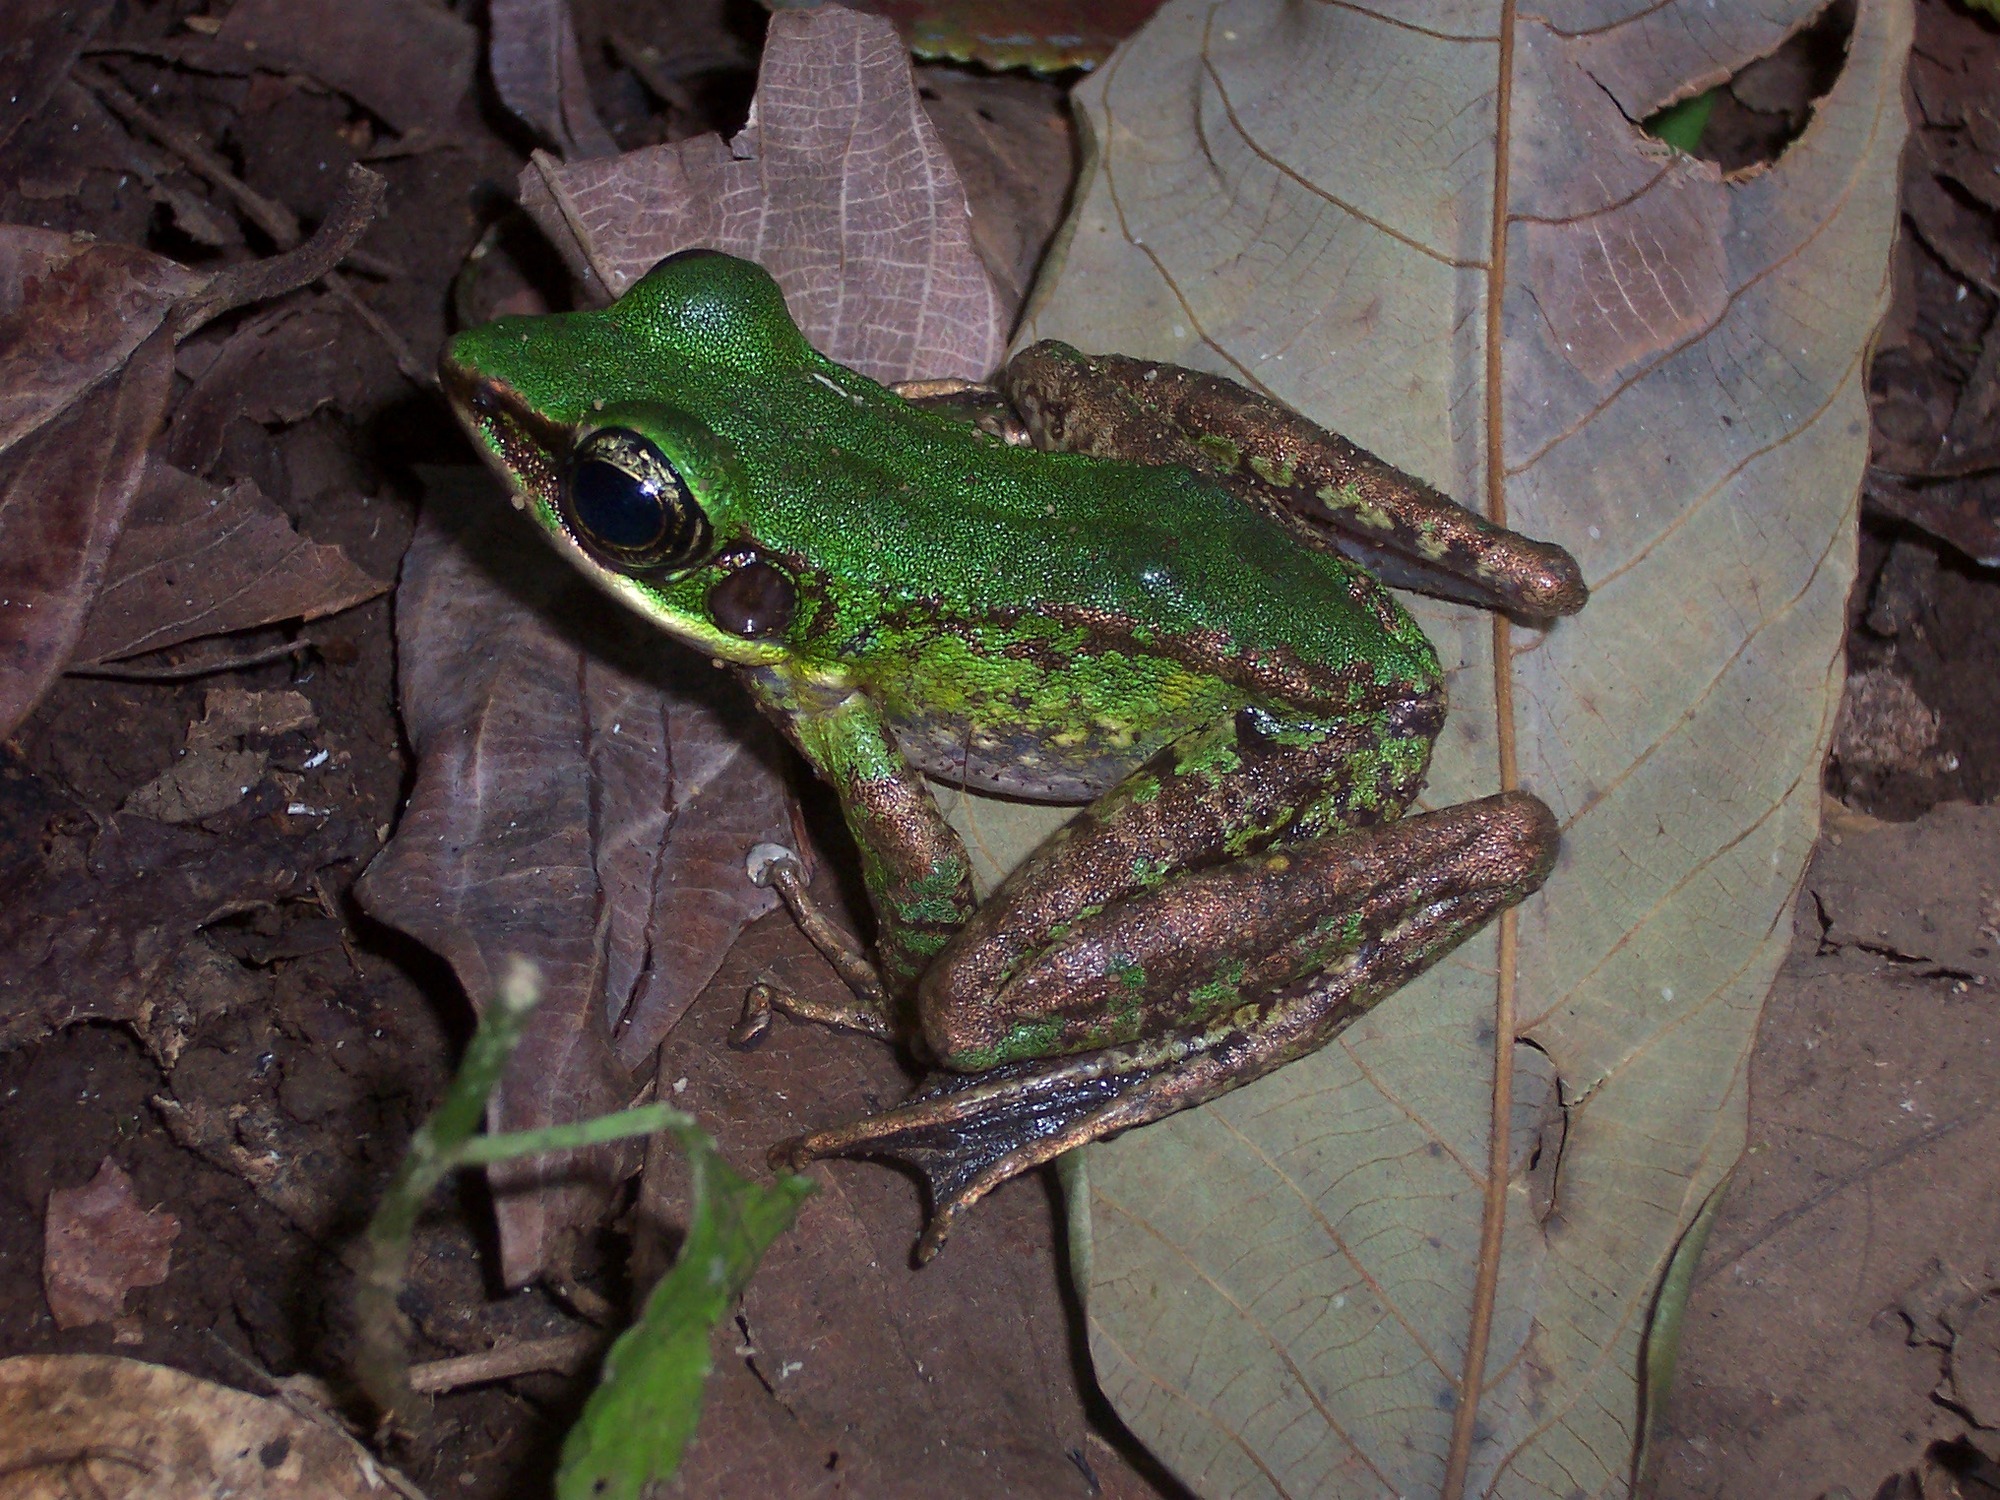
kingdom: Animalia
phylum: Chordata
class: Amphibia
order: Anura
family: Ranidae
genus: Odorrana
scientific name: Odorrana hosii
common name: Green tree frog
